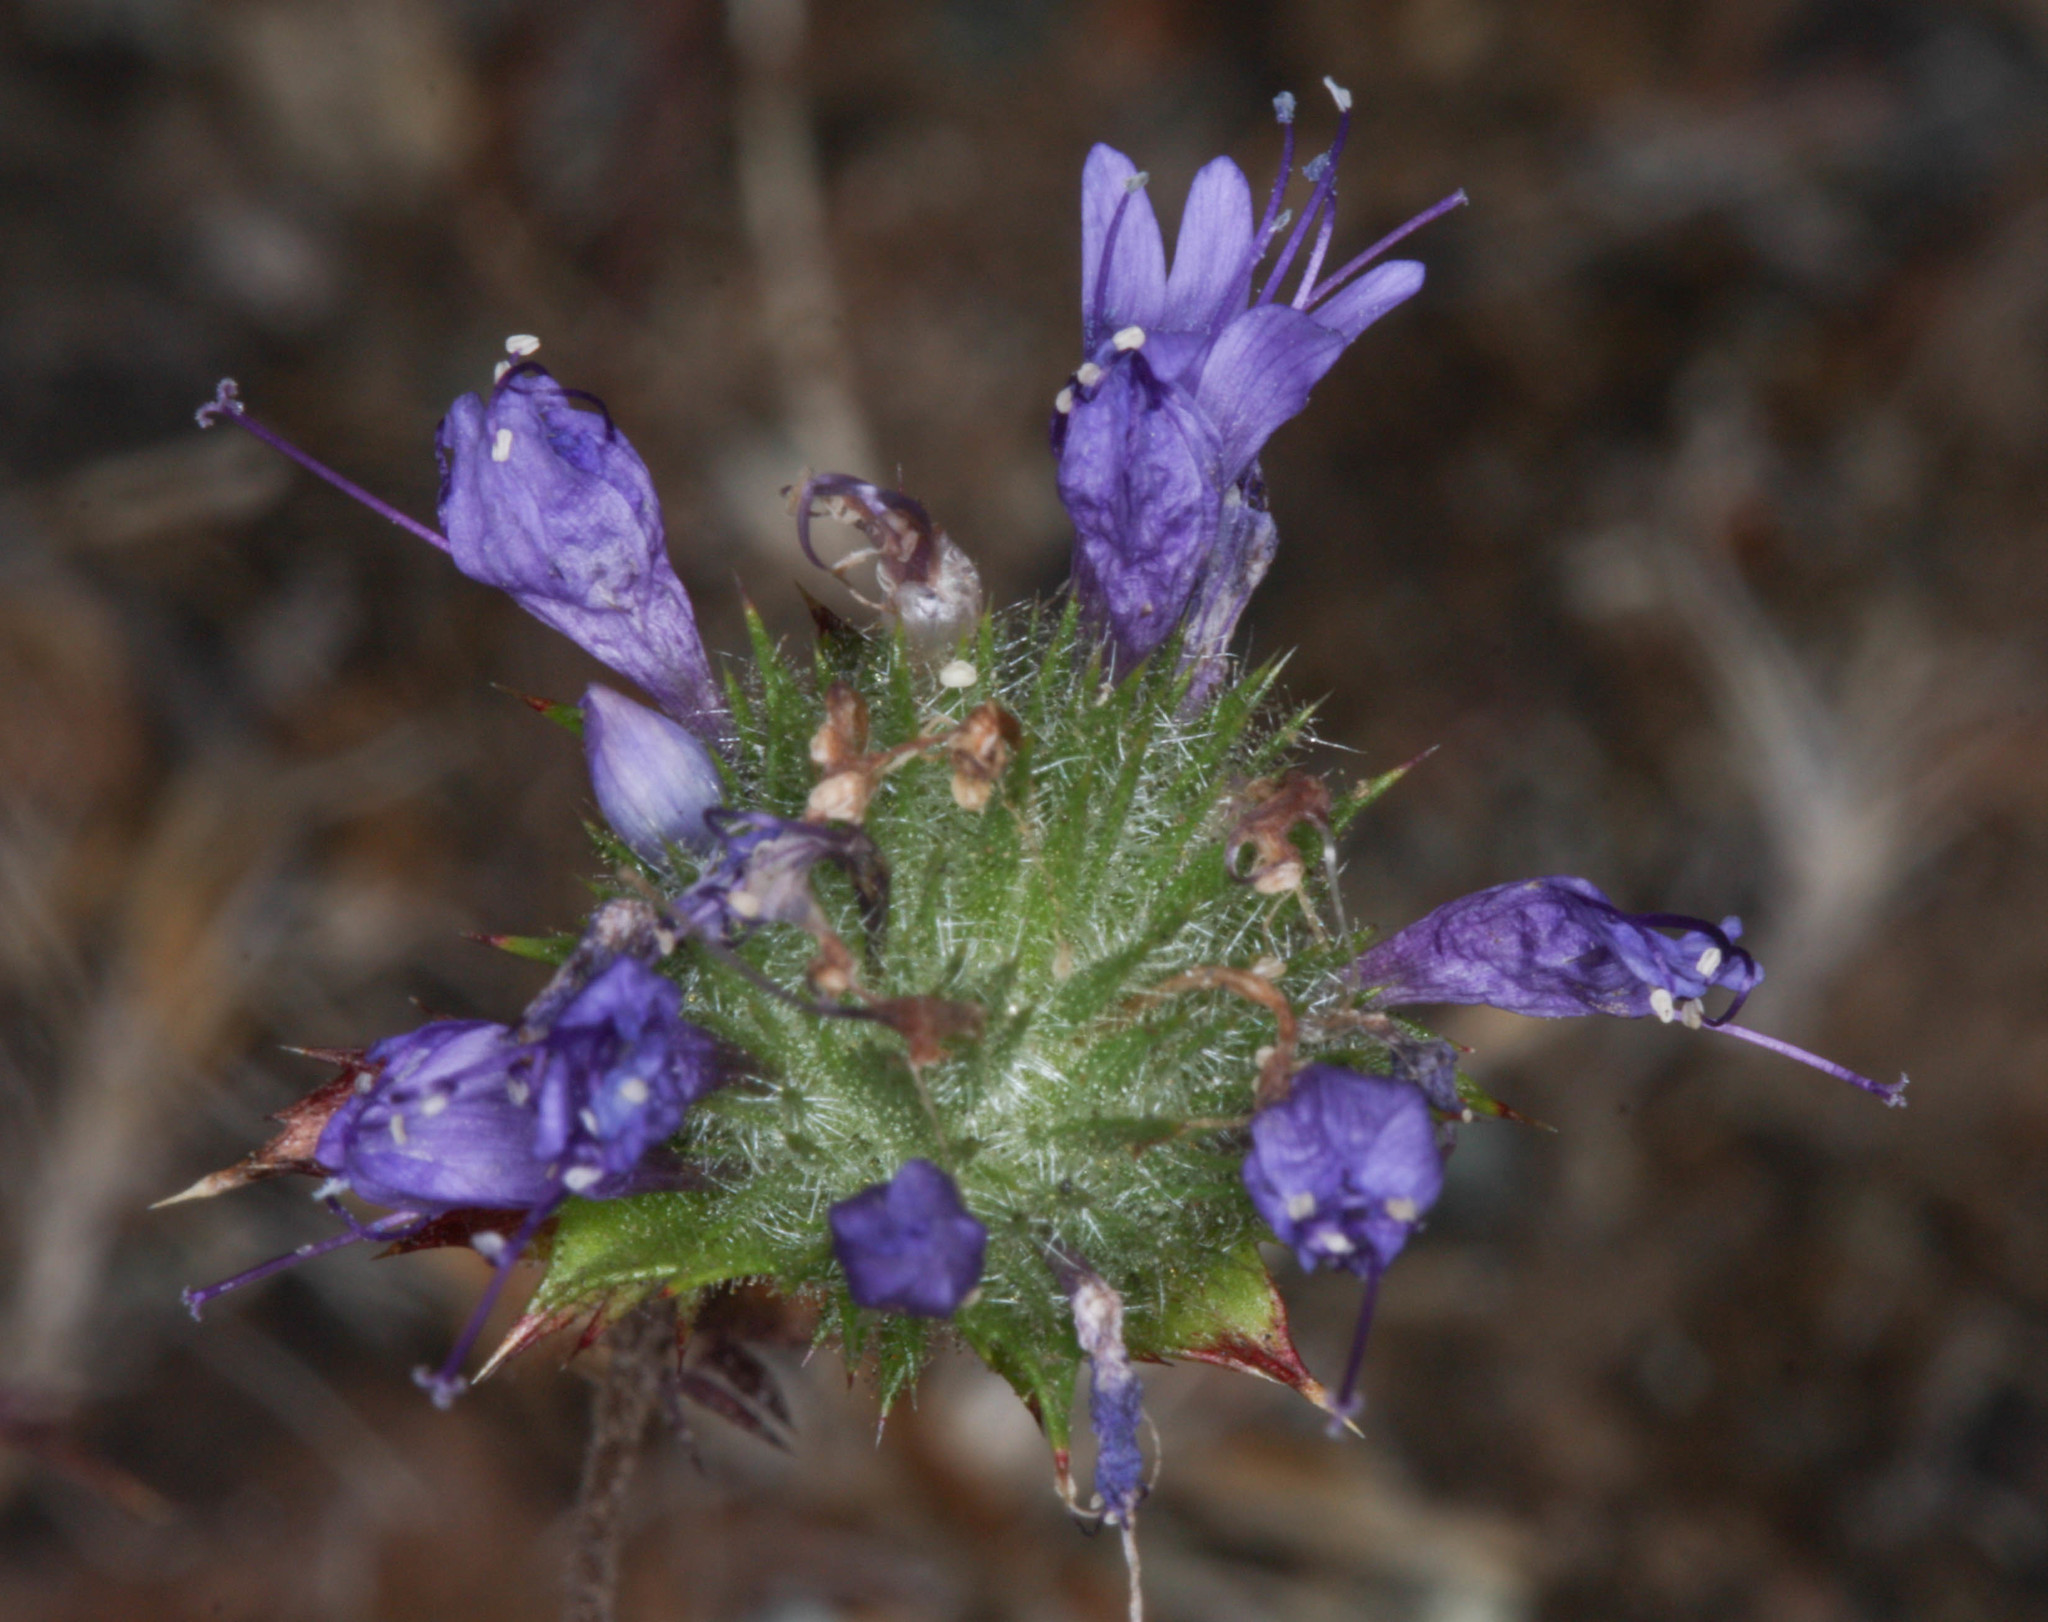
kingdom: Plantae
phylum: Tracheophyta
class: Magnoliopsida
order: Ericales
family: Polemoniaceae
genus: Navarretia
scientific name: Navarretia heterodoxa
